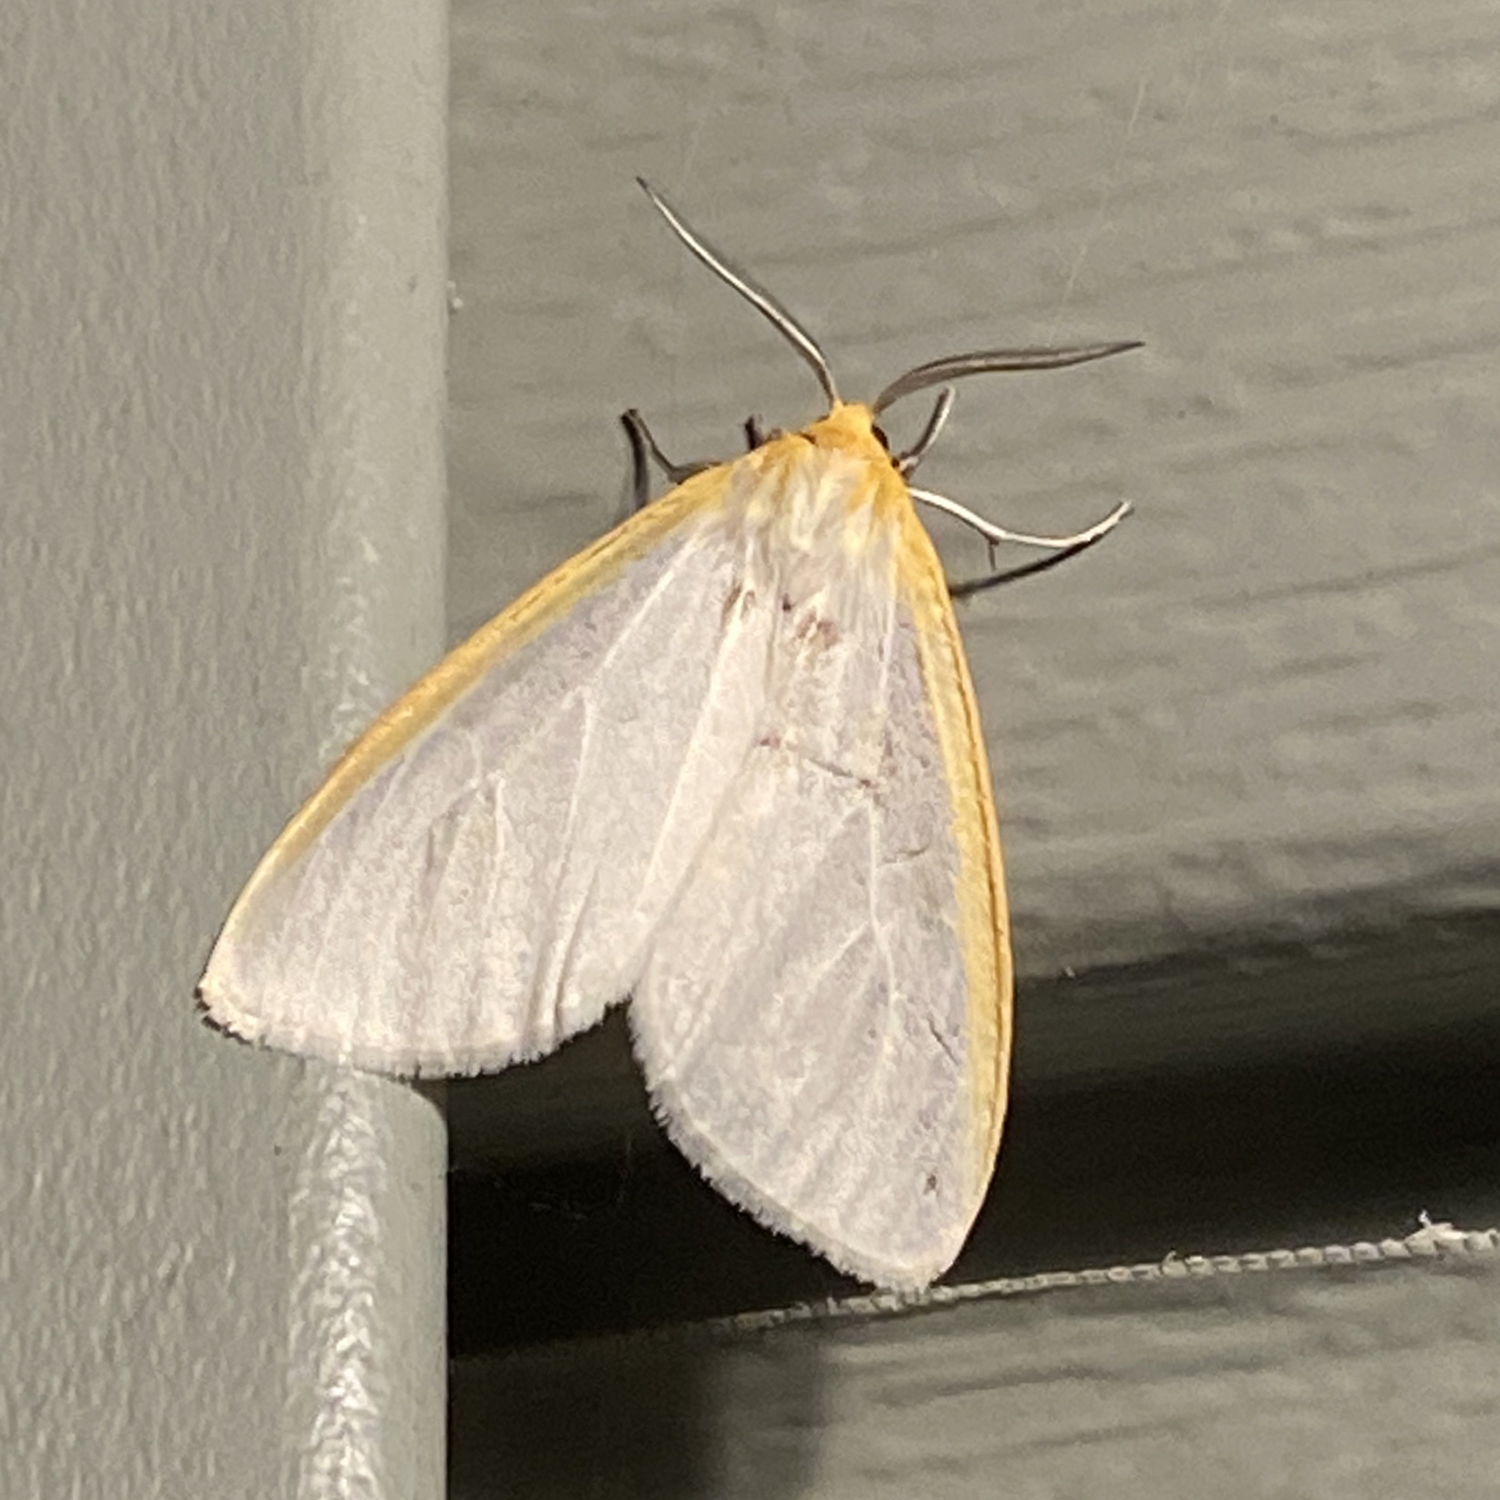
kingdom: Animalia
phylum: Arthropoda
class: Insecta
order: Lepidoptera
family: Erebidae
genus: Cycnia
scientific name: Cycnia tenera
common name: Delicate cycnia moth
